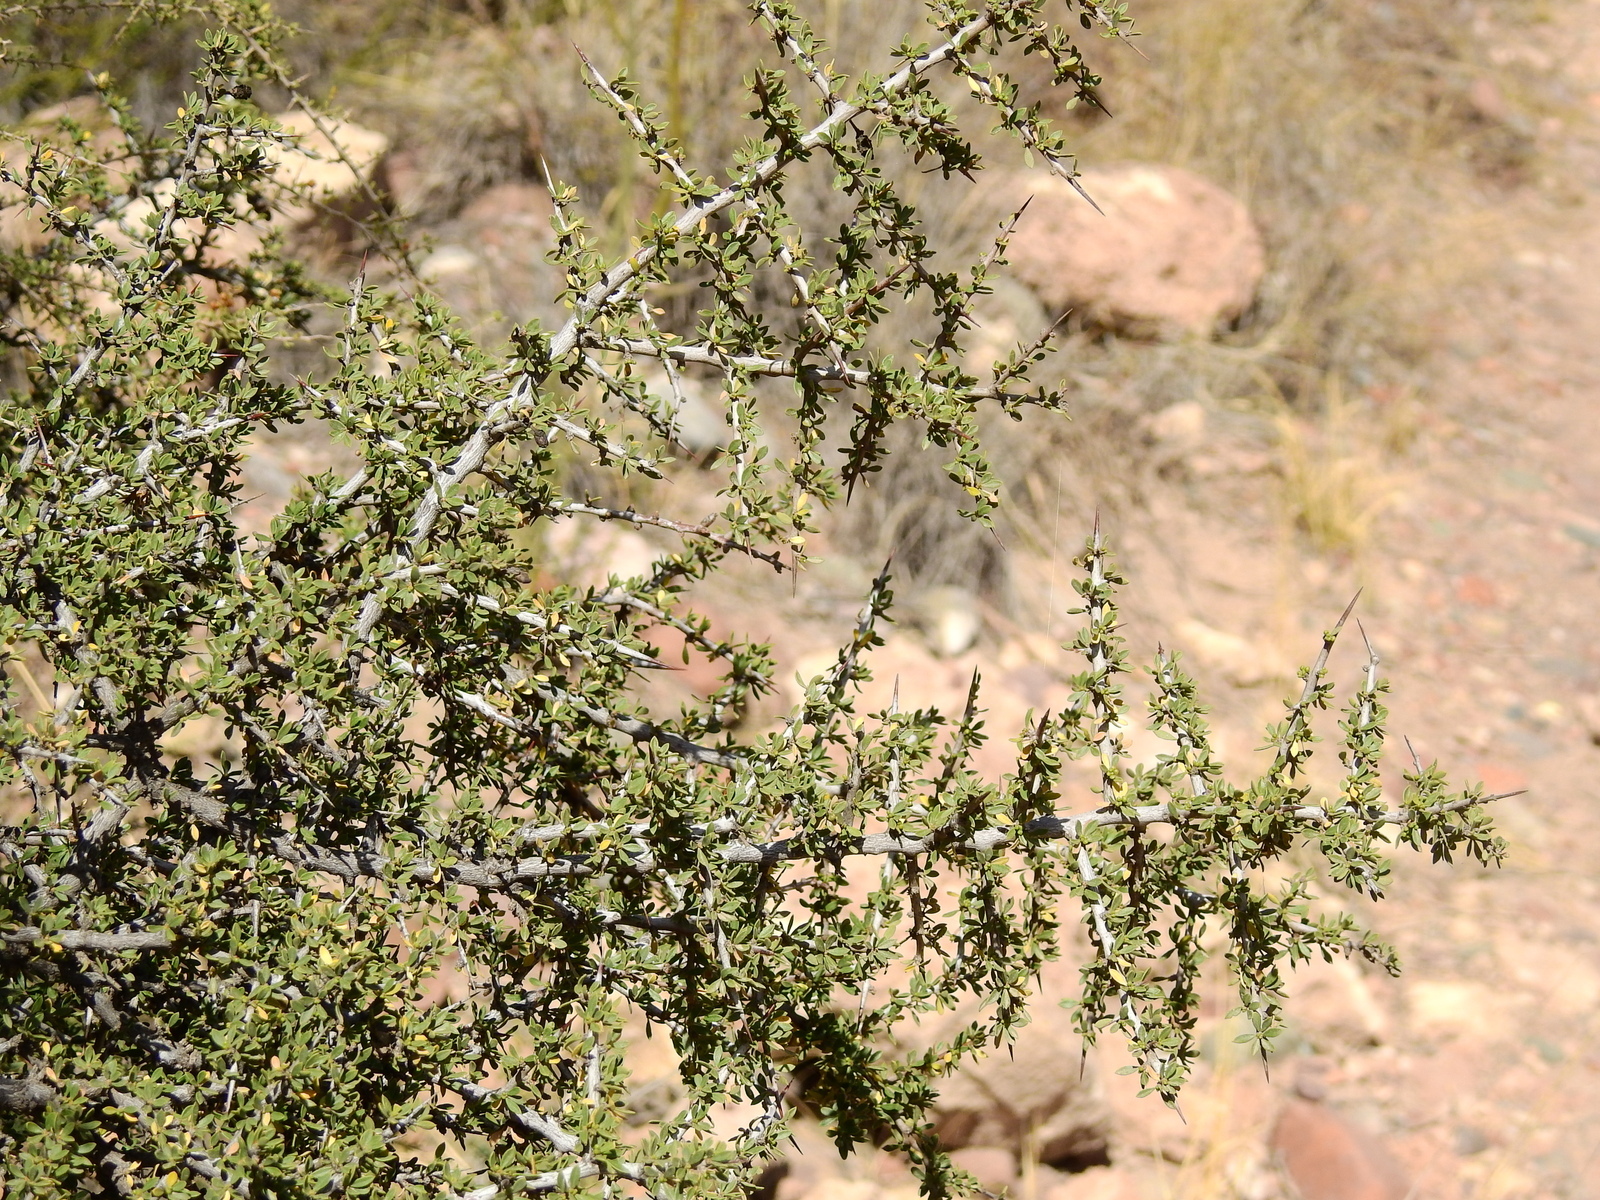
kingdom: Plantae
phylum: Tracheophyta
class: Magnoliopsida
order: Rosales
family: Rhamnaceae
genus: Condalia
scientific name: Condalia microphylla
